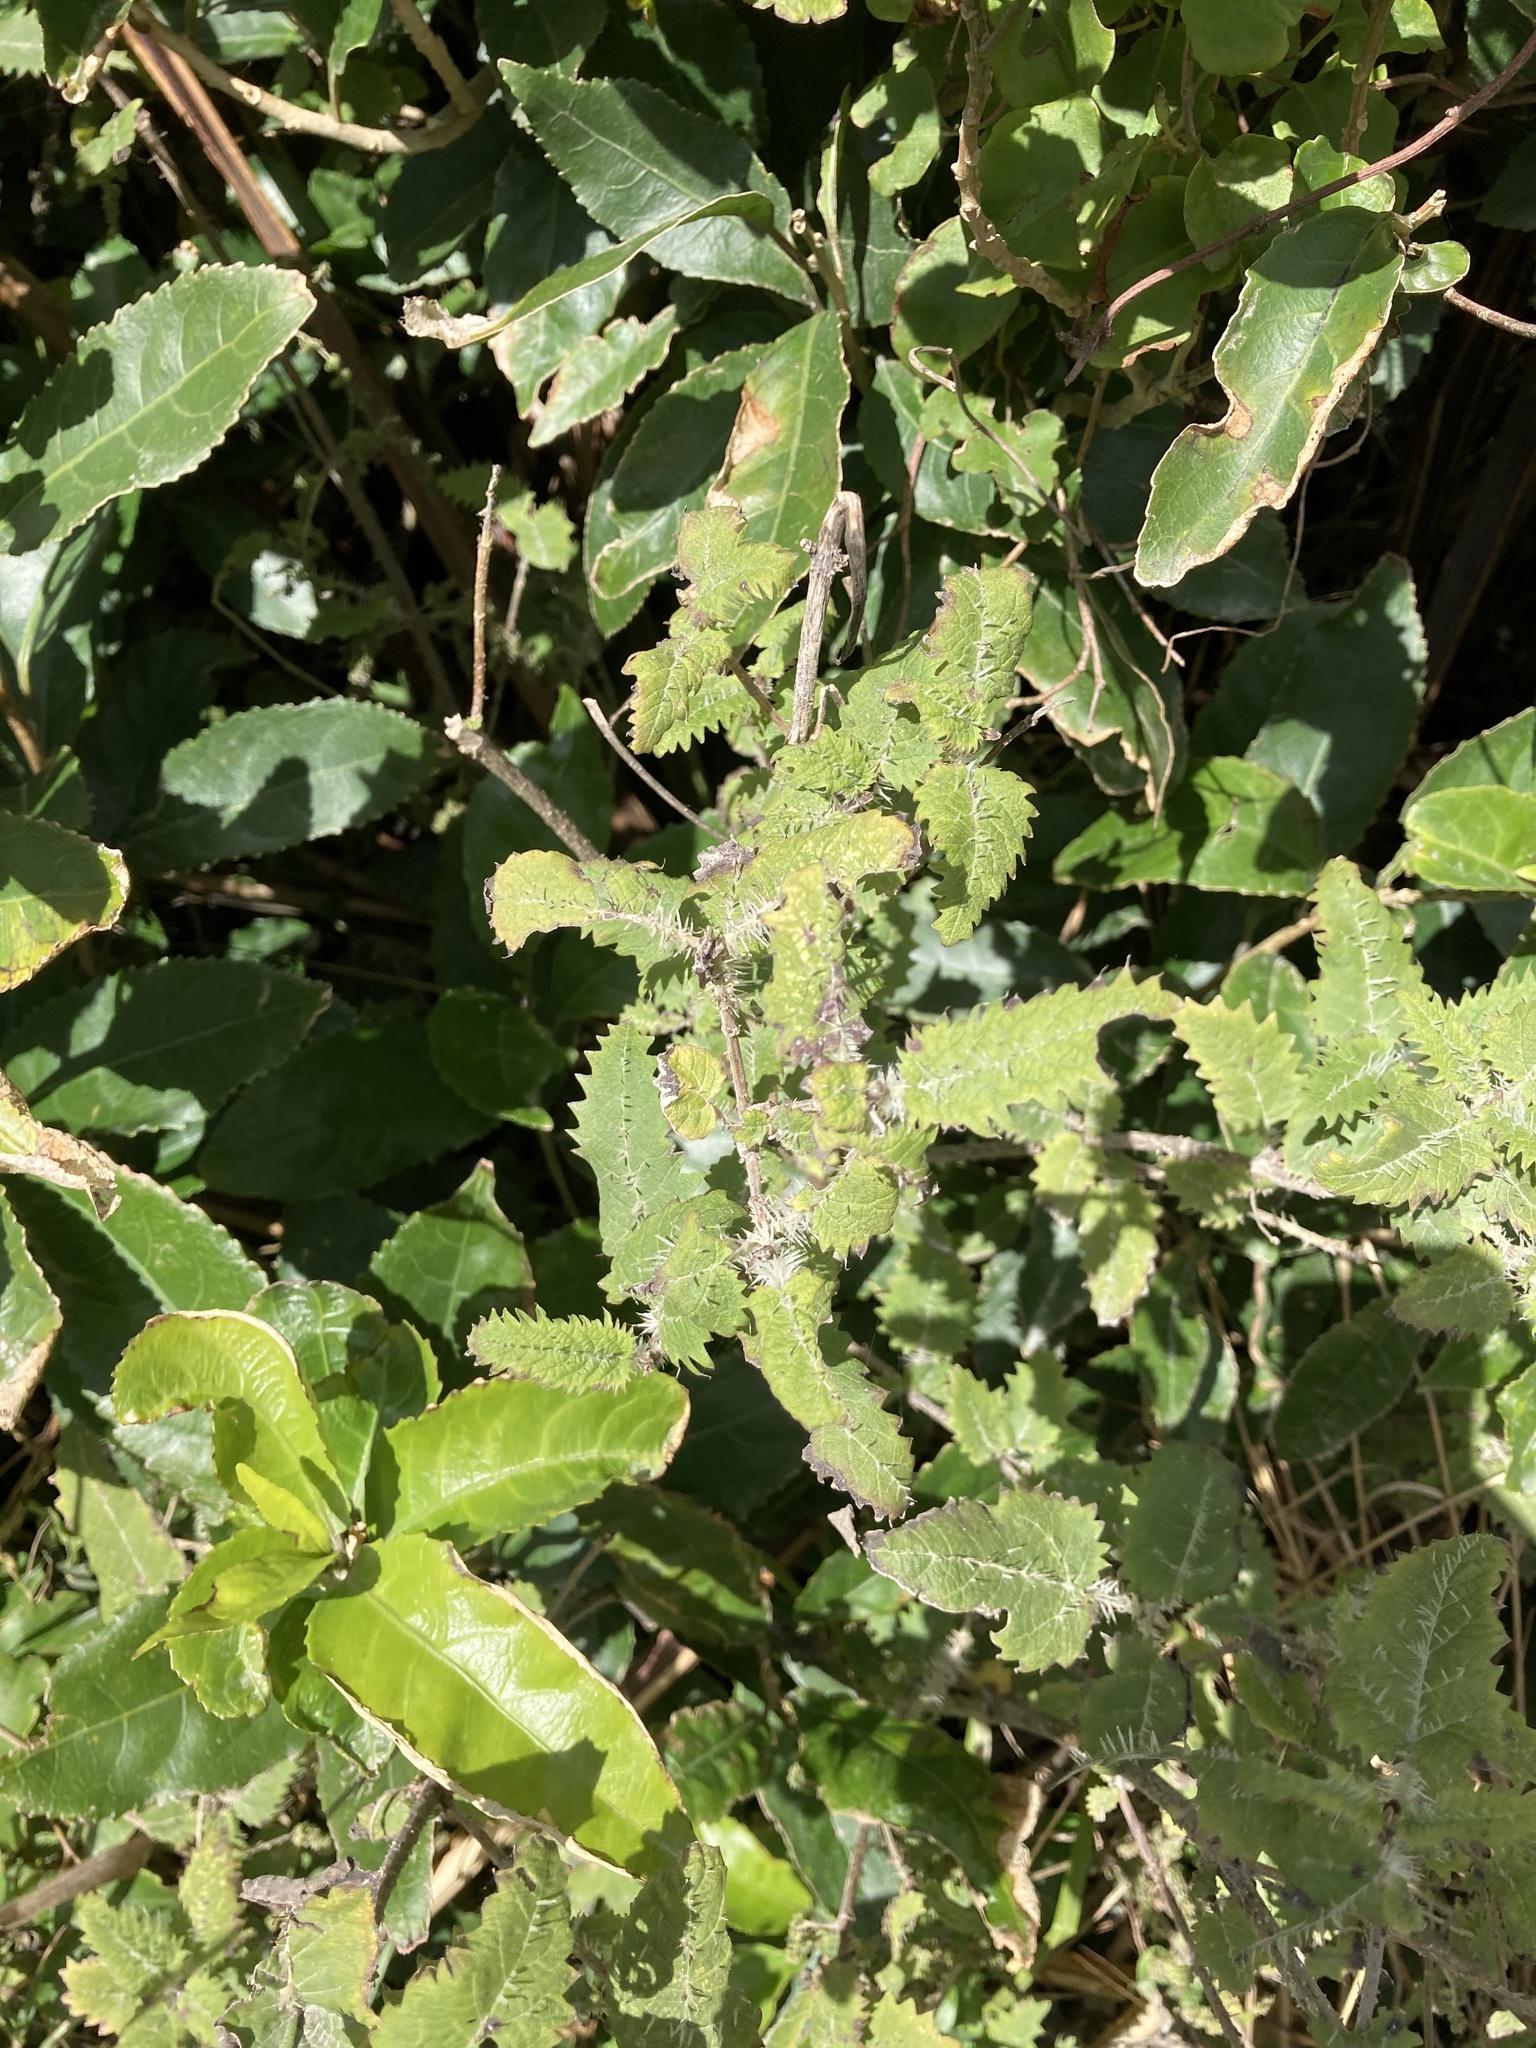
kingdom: Plantae
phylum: Tracheophyta
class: Magnoliopsida
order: Rosales
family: Urticaceae
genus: Urtica
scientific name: Urtica ferox
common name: Tree nettle
